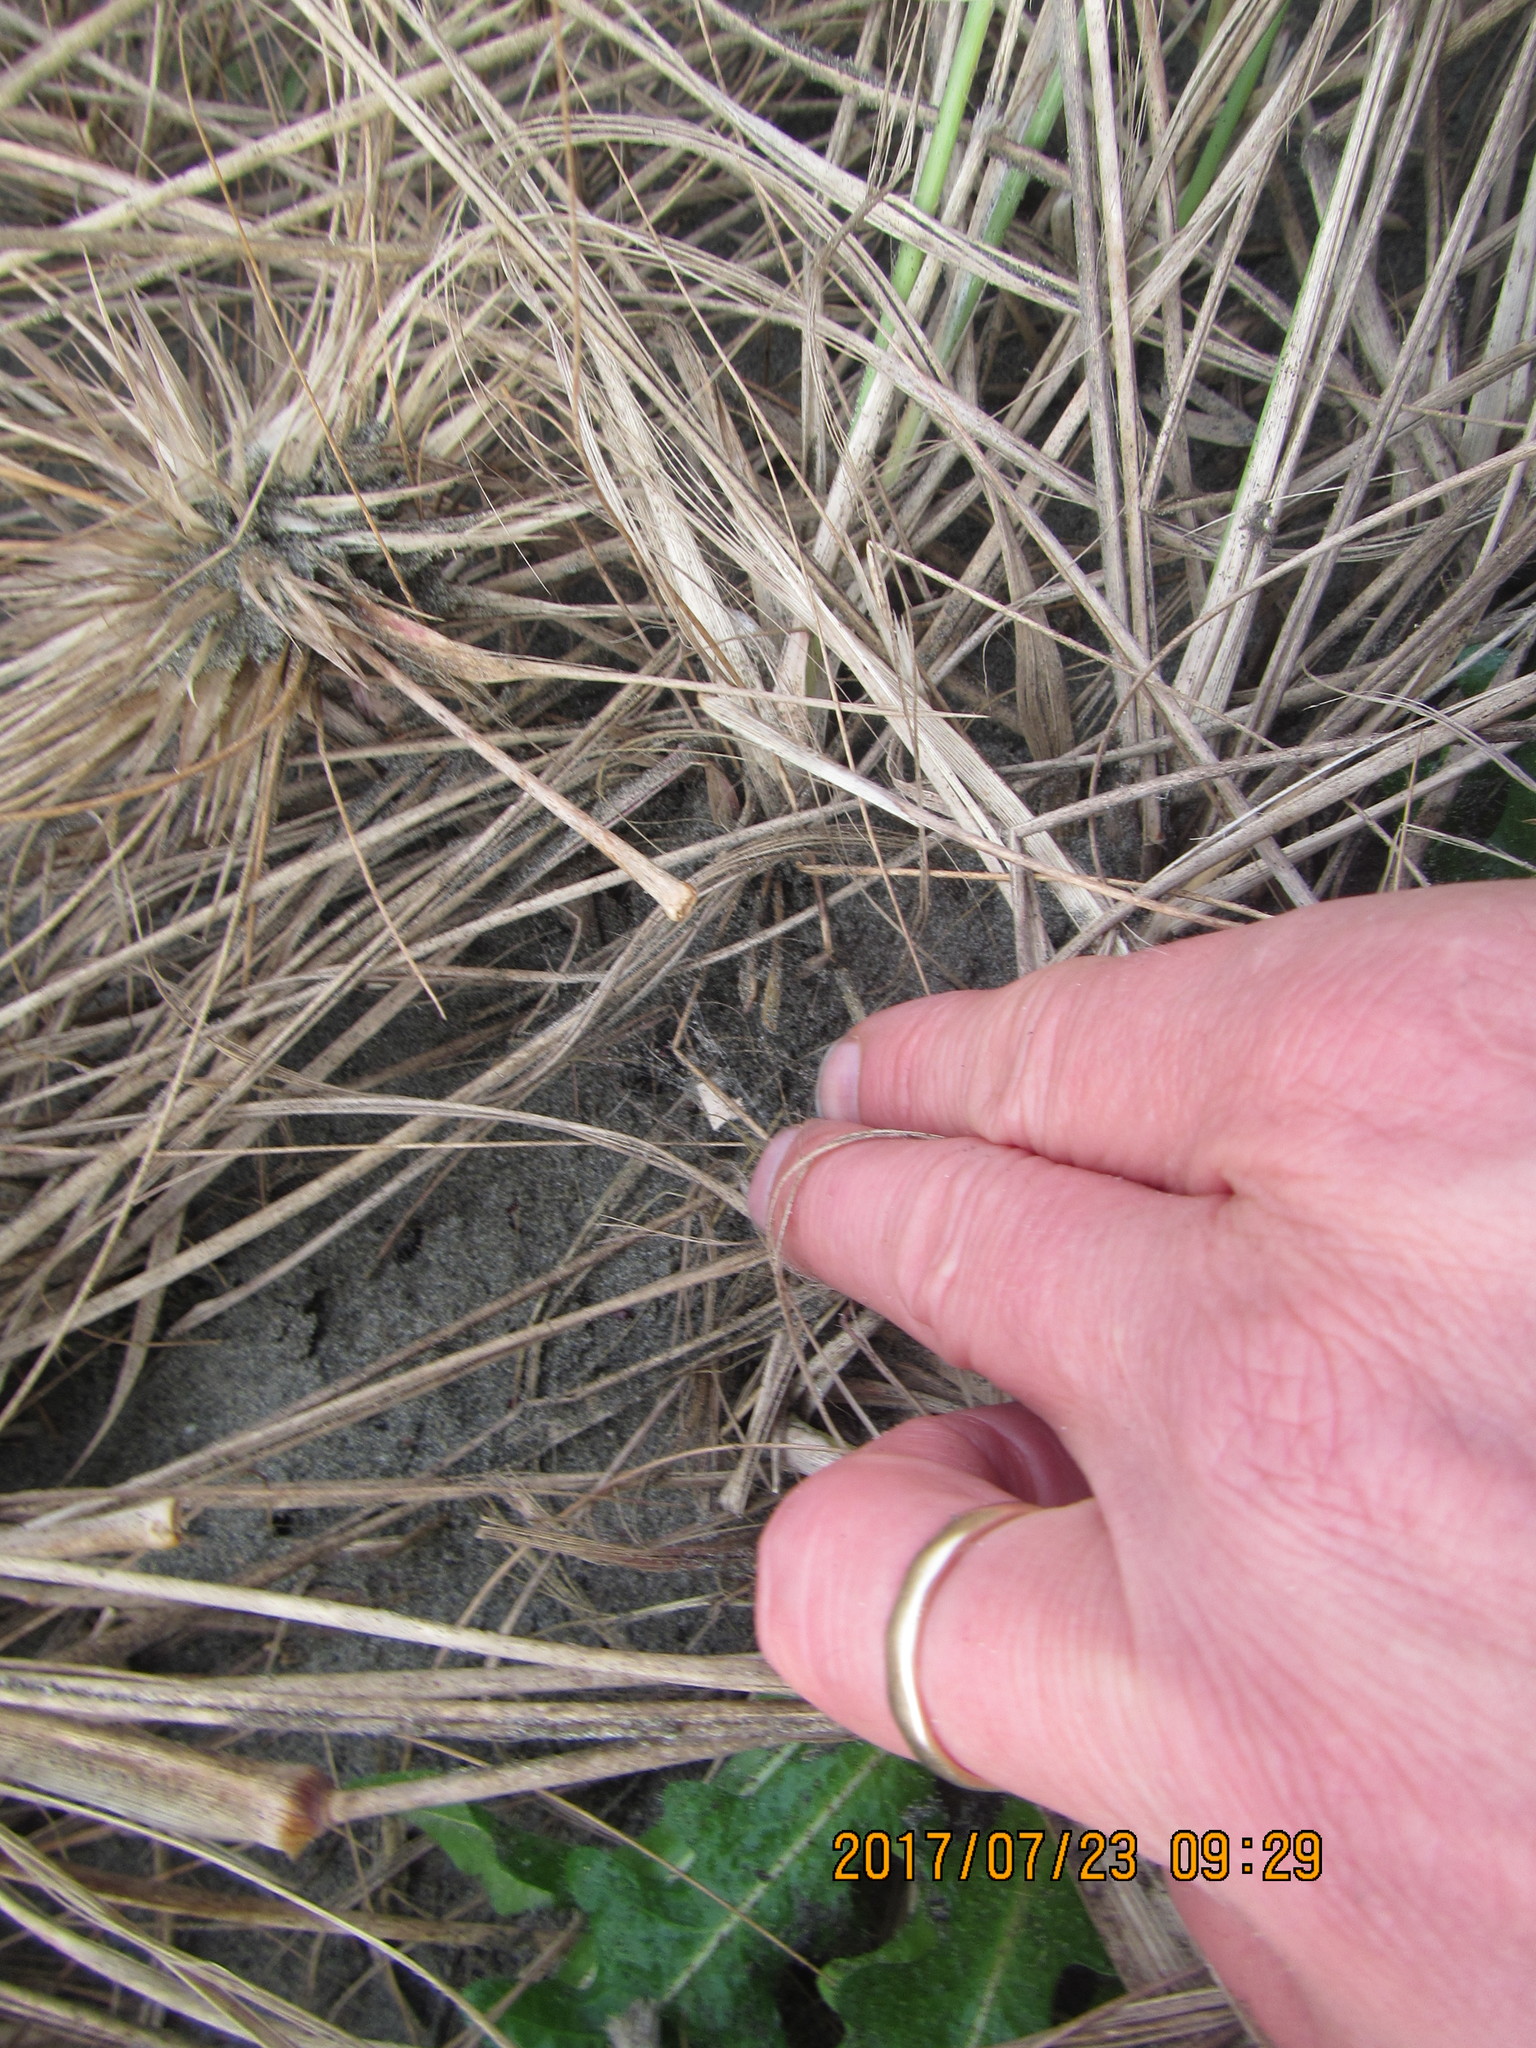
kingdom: Animalia
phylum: Arthropoda
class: Arachnida
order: Araneae
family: Theridiidae
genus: Latrodectus
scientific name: Latrodectus katipo
